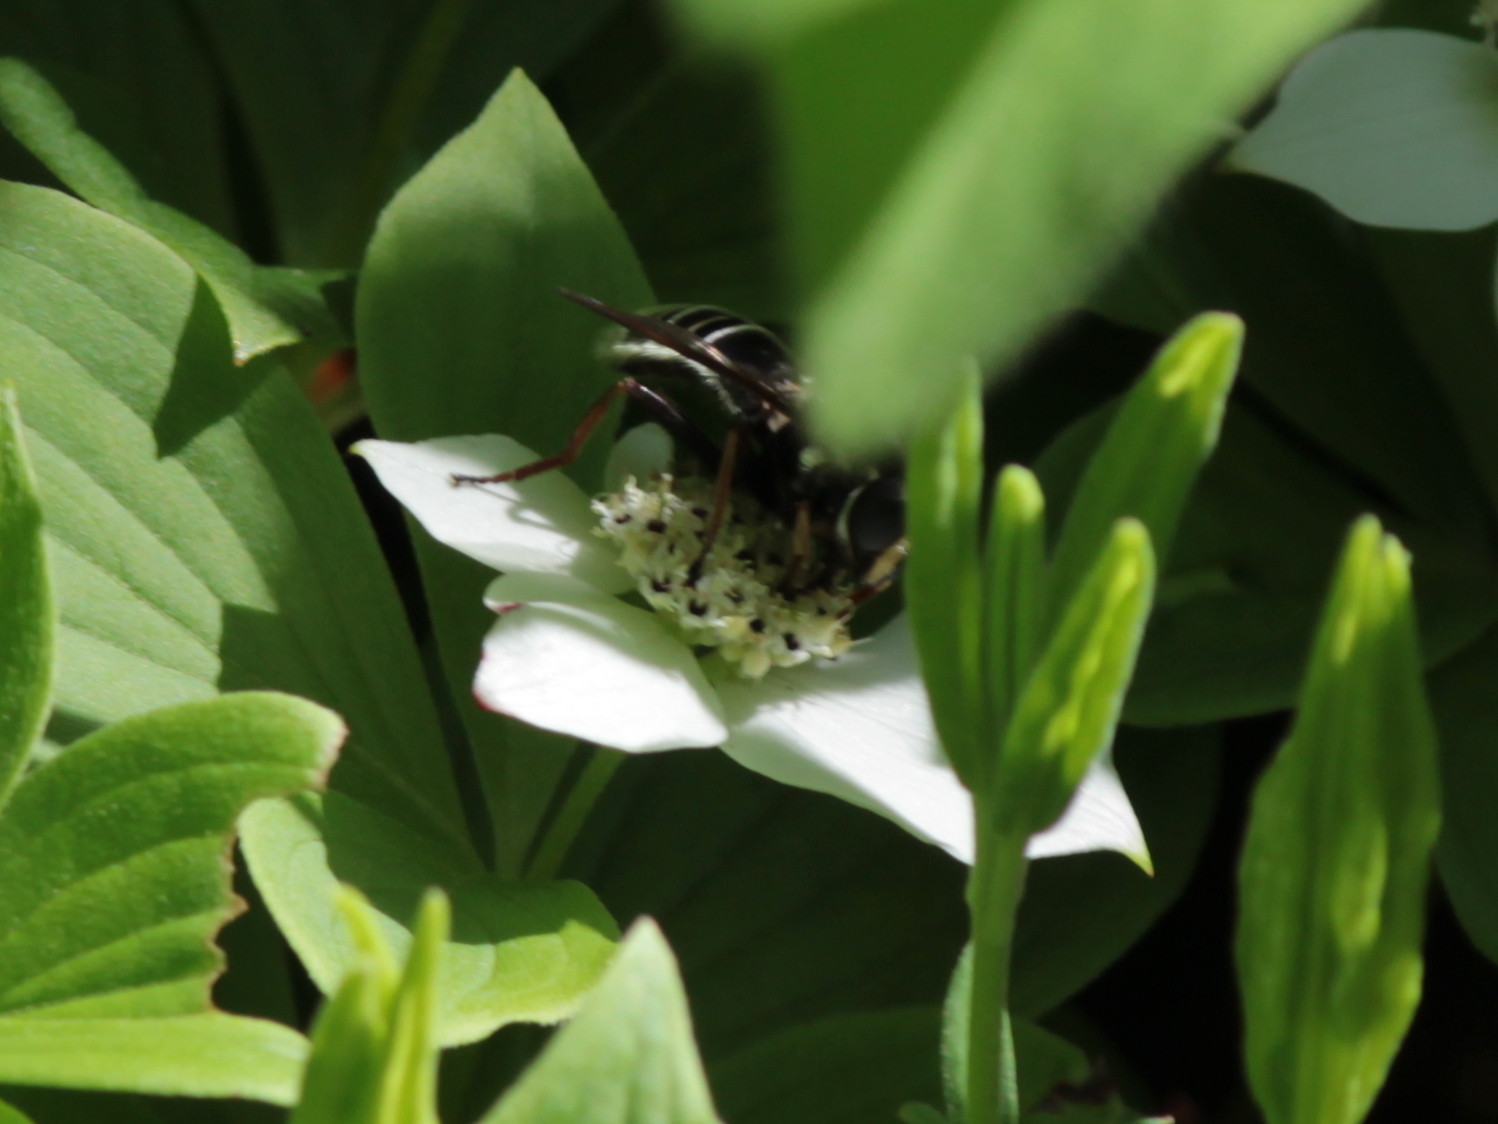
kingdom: Animalia
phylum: Arthropoda
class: Insecta
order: Diptera
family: Syrphidae
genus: Sericomyia
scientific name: Sericomyia militaris
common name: Narrow-banded pond fly
